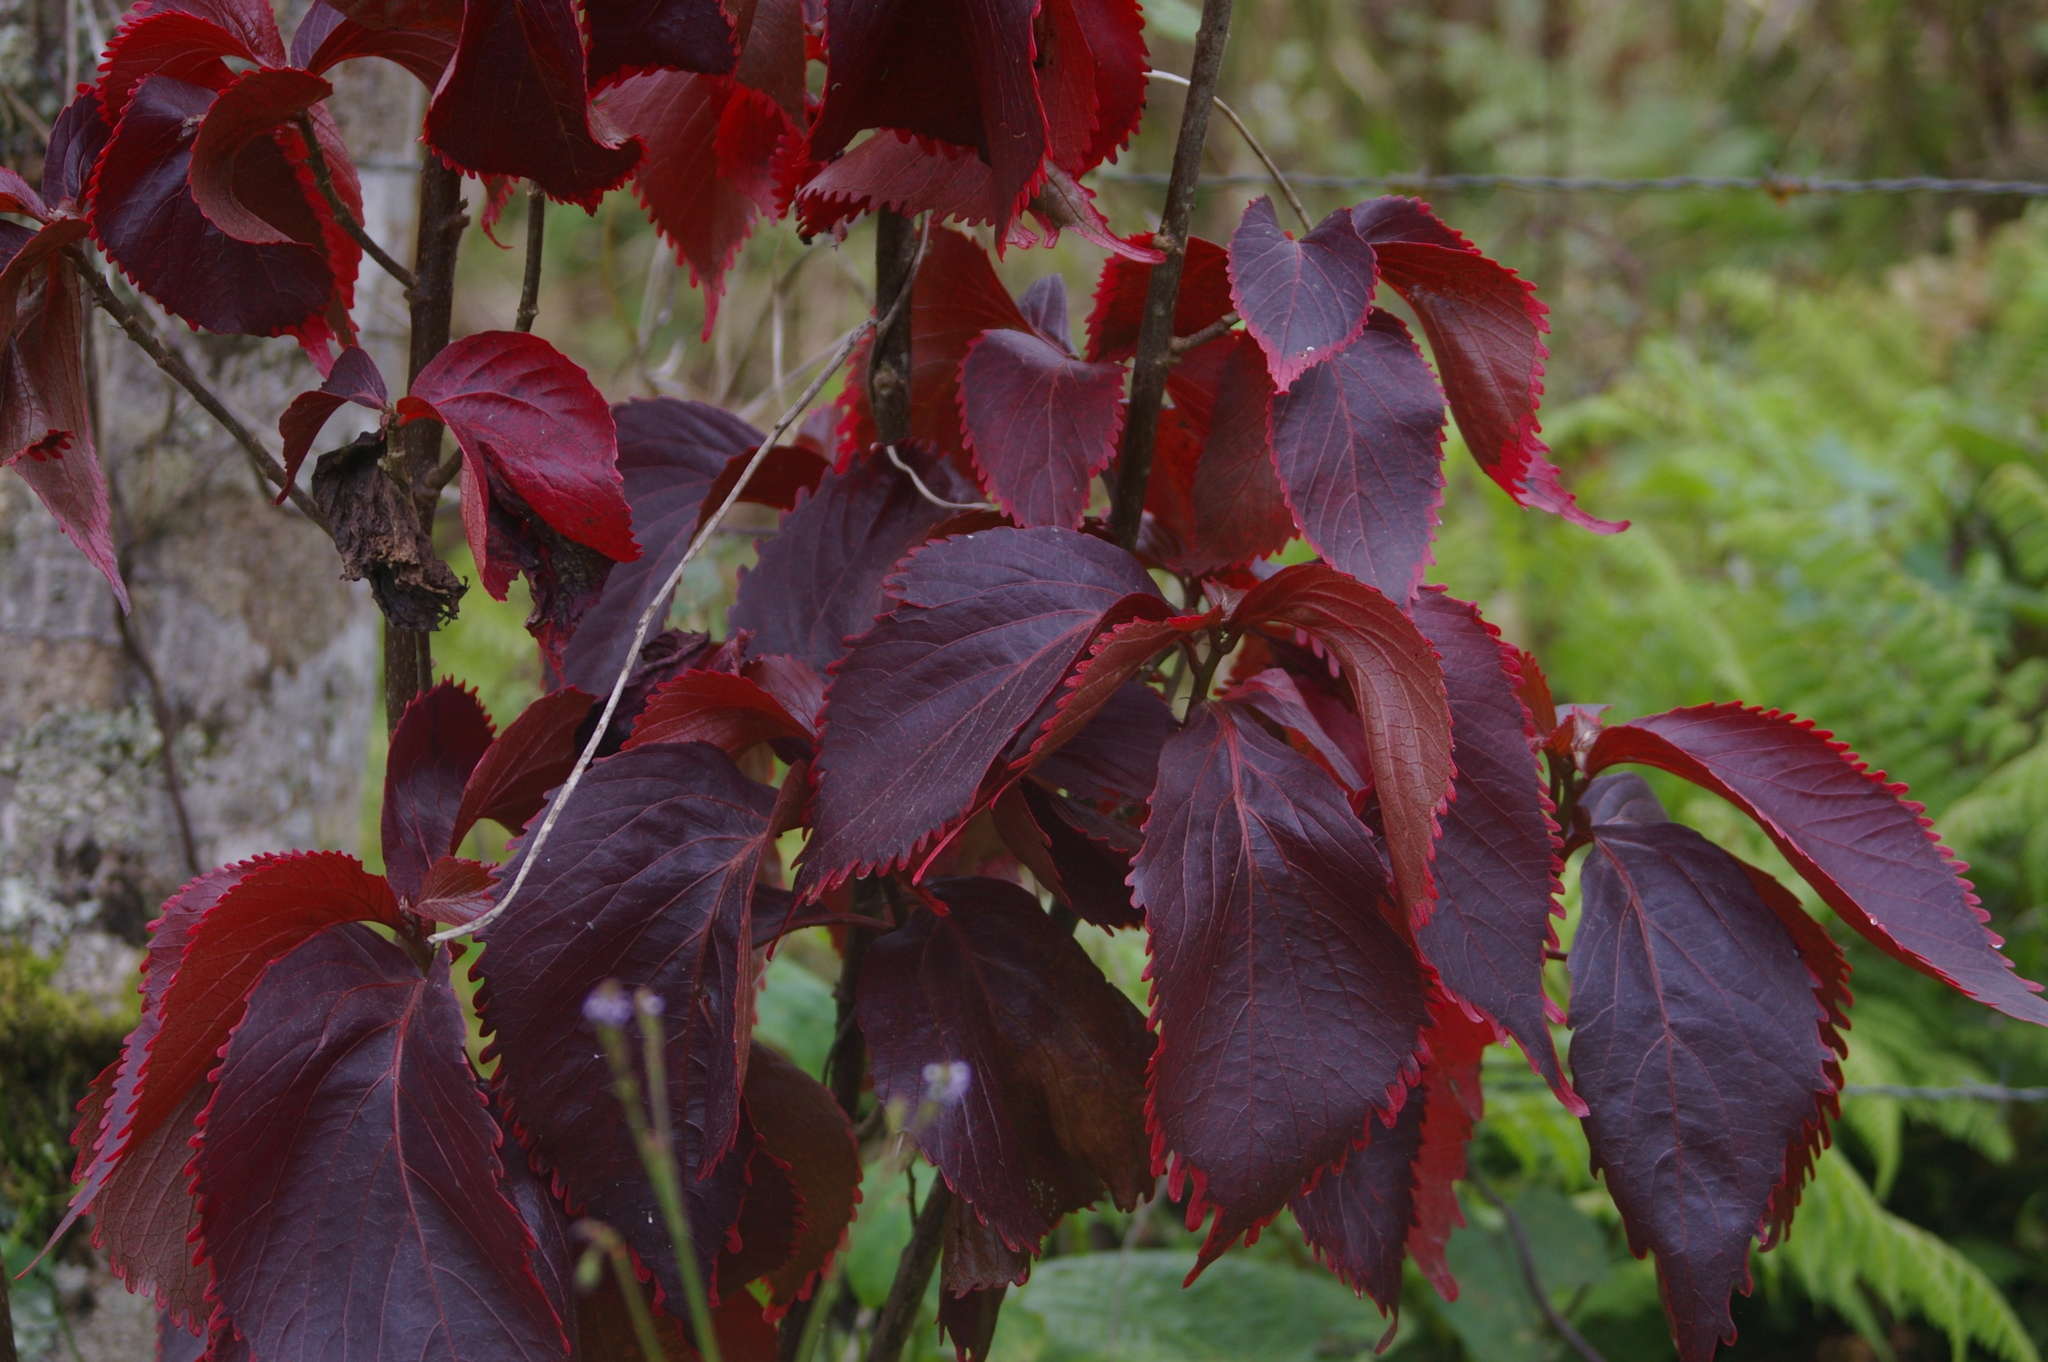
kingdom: Plantae
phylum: Tracheophyta
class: Magnoliopsida
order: Malpighiales
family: Euphorbiaceae
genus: Acalypha
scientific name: Acalypha wilkesiana
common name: Jacob's coat
